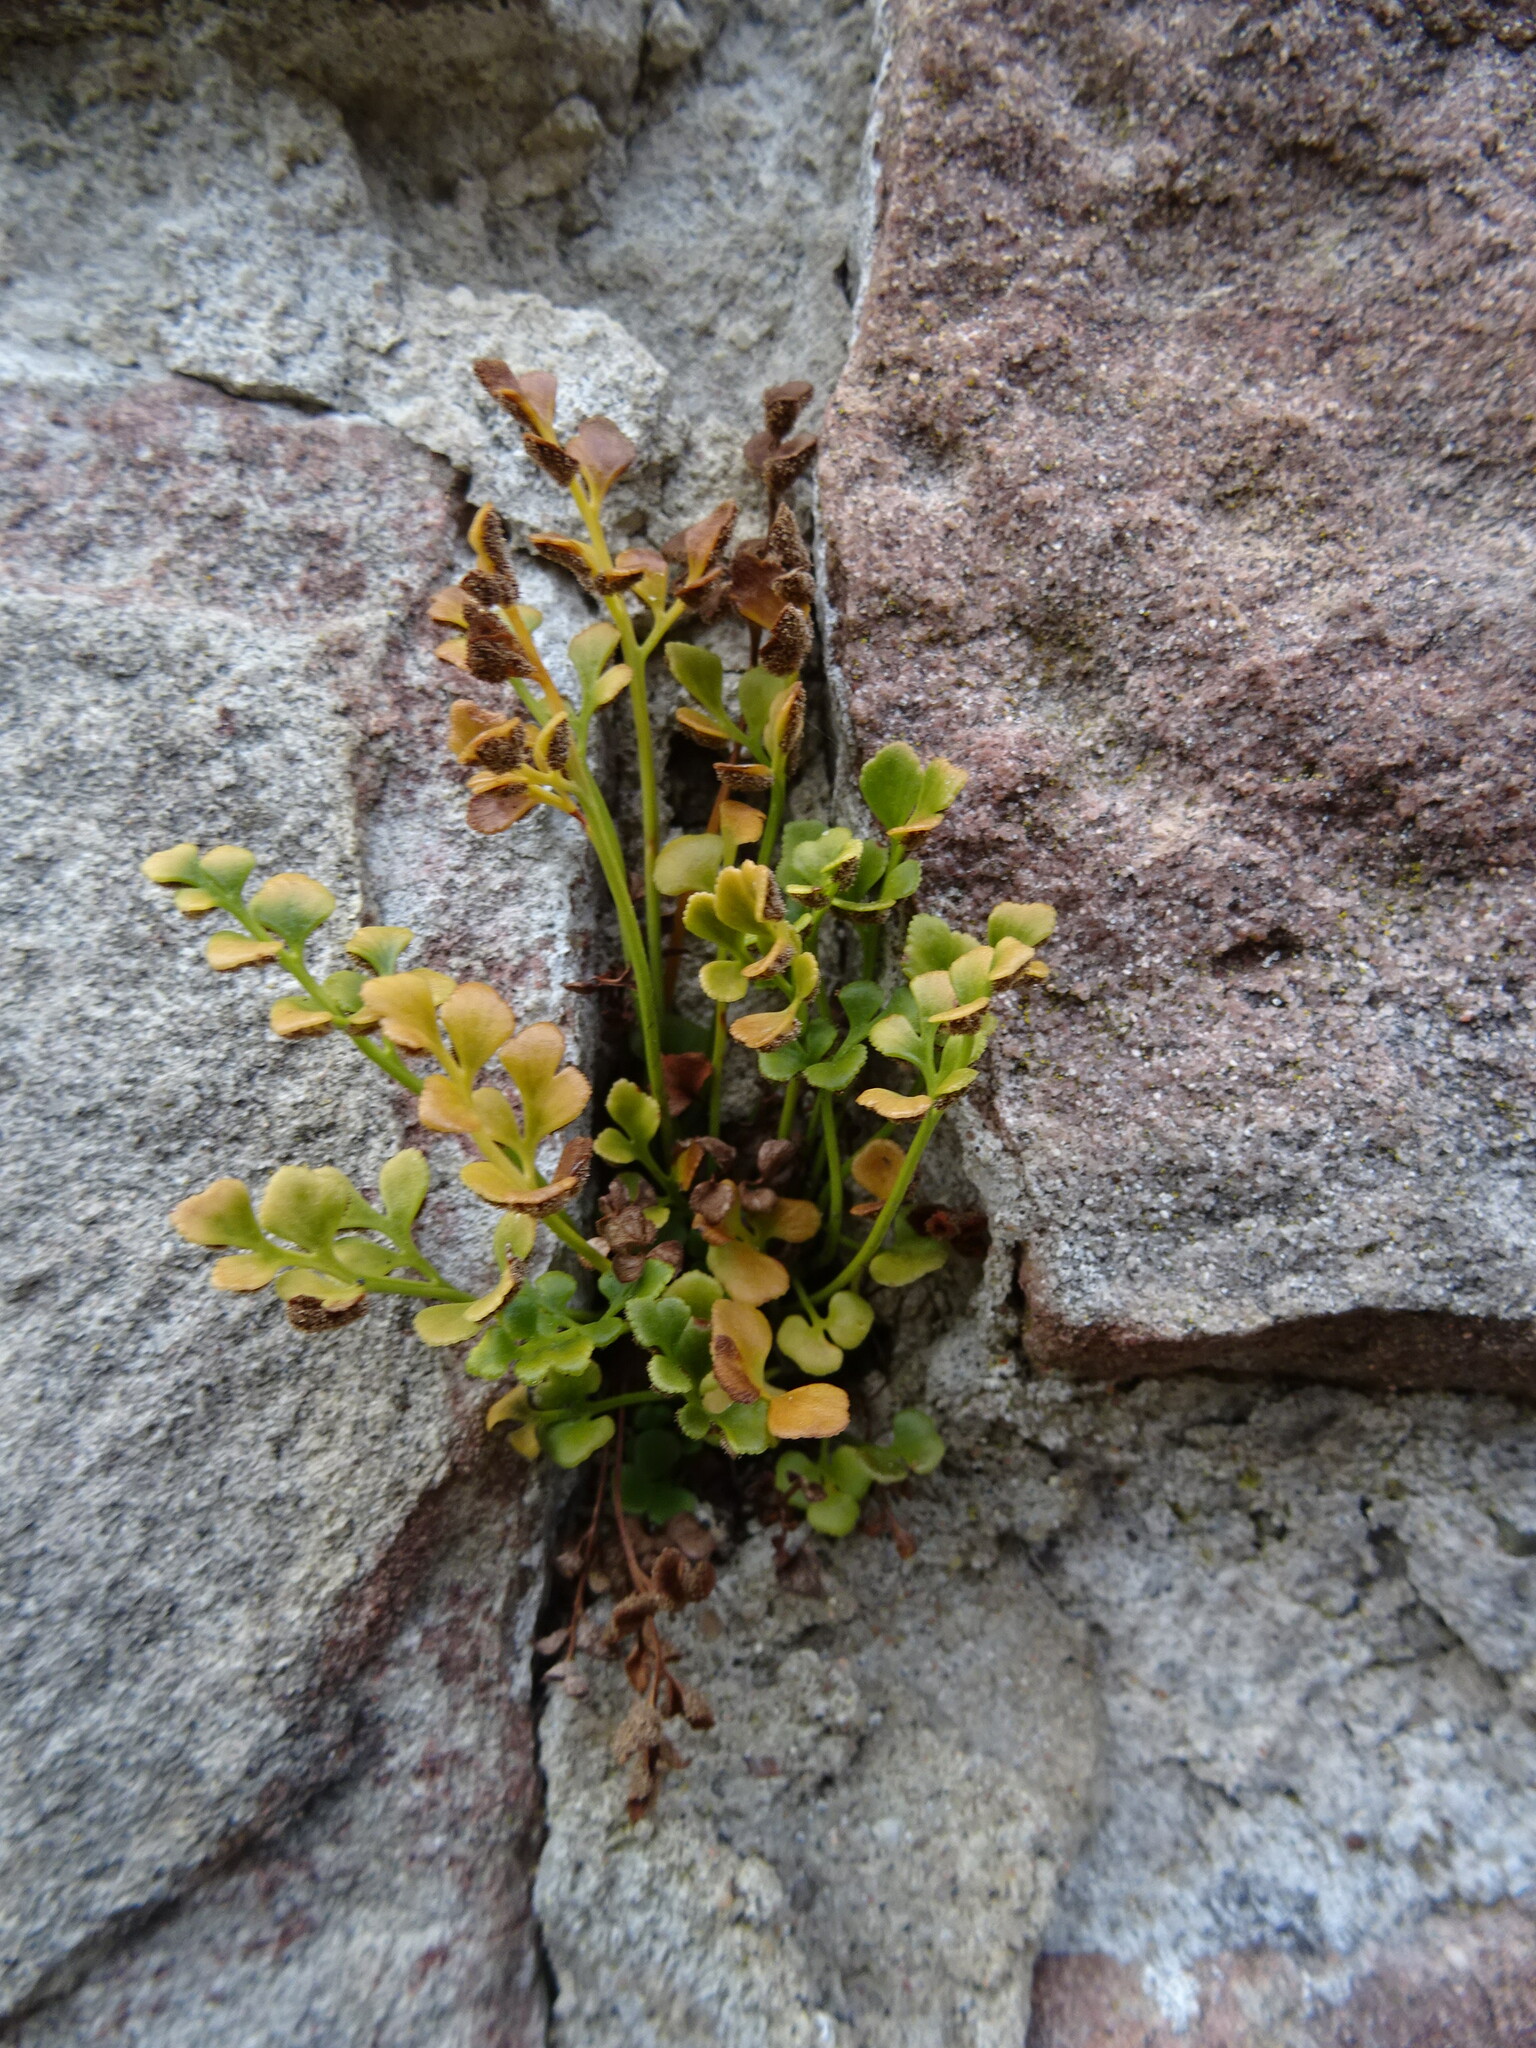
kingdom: Plantae
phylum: Tracheophyta
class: Polypodiopsida
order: Polypodiales
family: Aspleniaceae
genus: Asplenium
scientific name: Asplenium ruta-muraria
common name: Wall-rue
